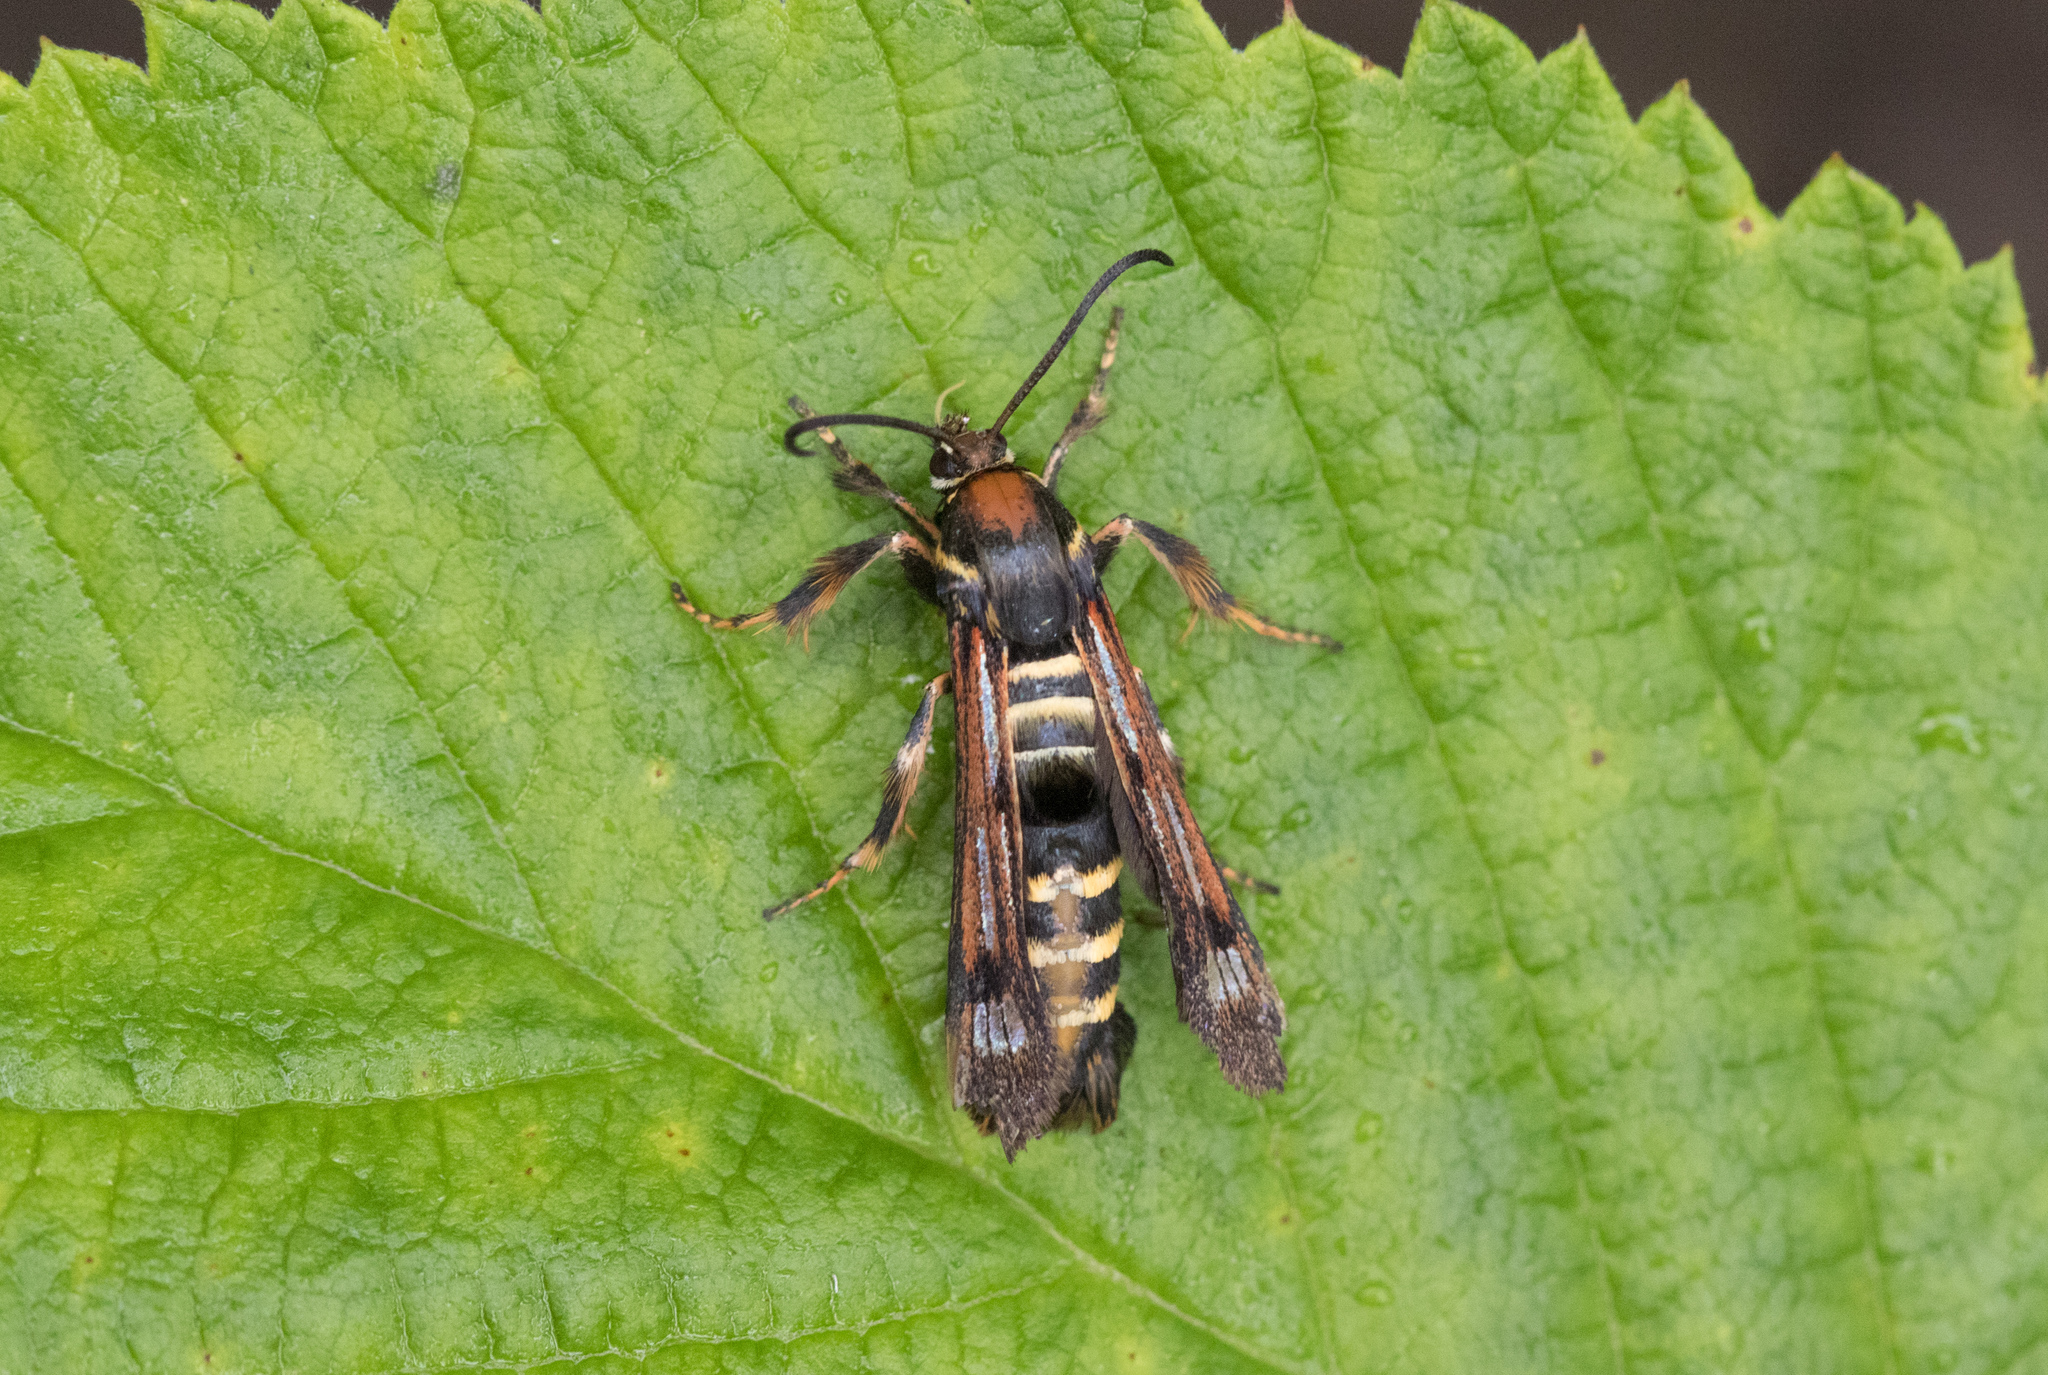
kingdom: Animalia
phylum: Arthropoda
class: Insecta
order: Lepidoptera
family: Sesiidae
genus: Pennisetia
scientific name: Pennisetia hylaeiformis
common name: Raspberry clearwing
